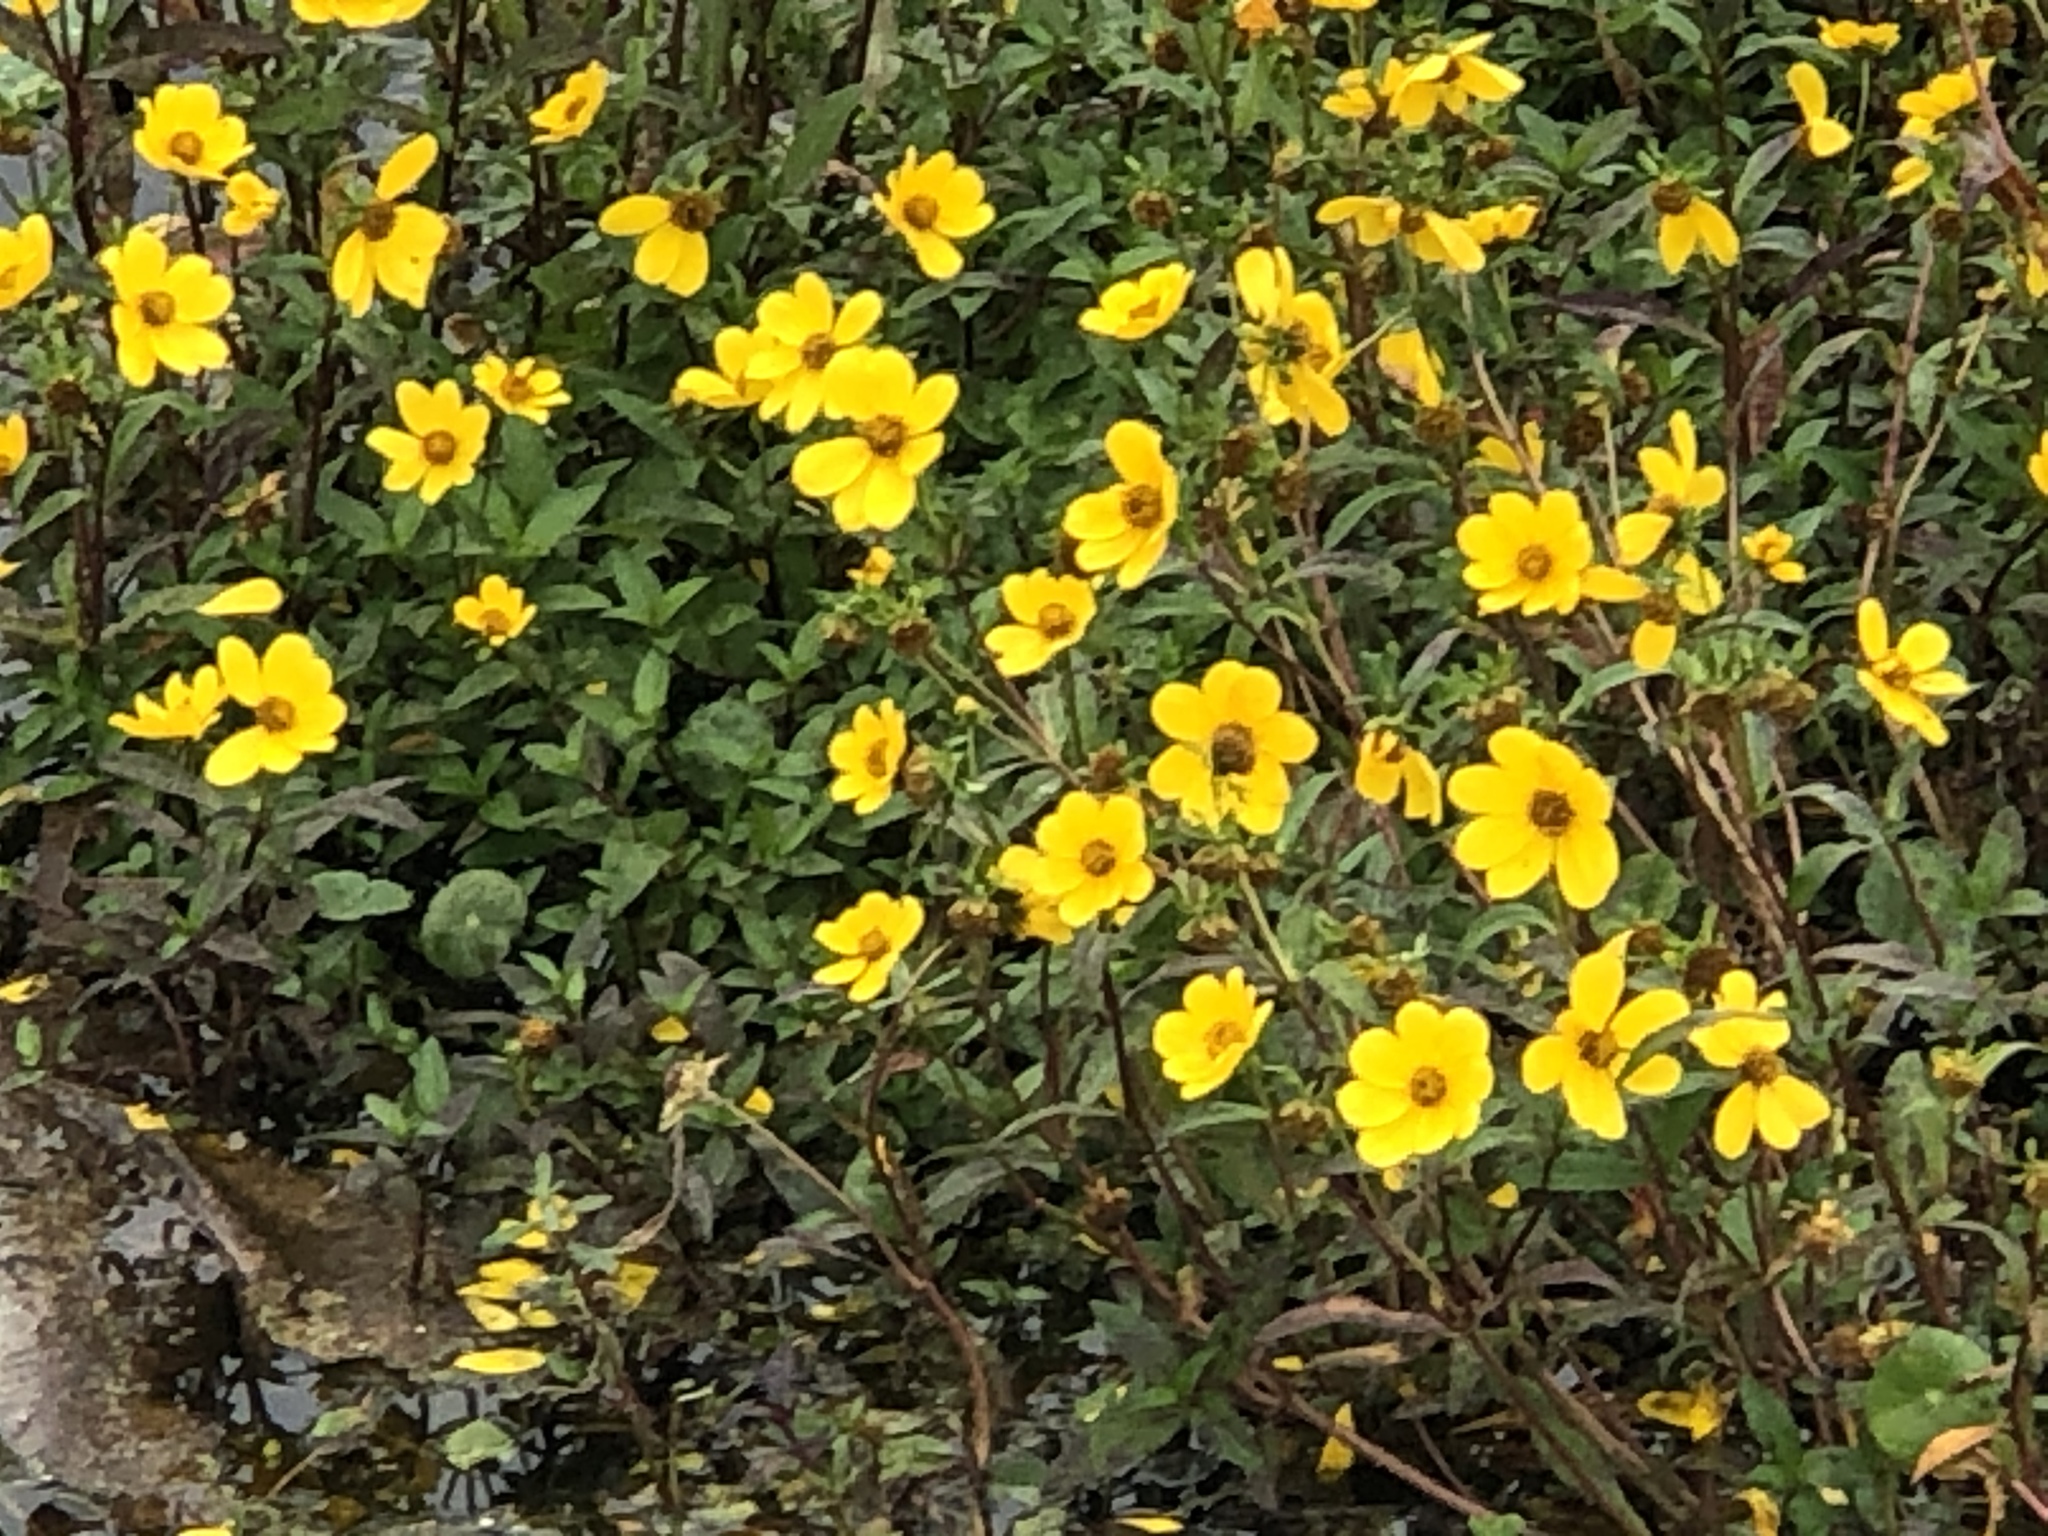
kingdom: Plantae
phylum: Tracheophyta
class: Magnoliopsida
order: Asterales
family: Asteraceae
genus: Bidens
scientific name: Bidens laevis
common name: Larger bur-marigold
